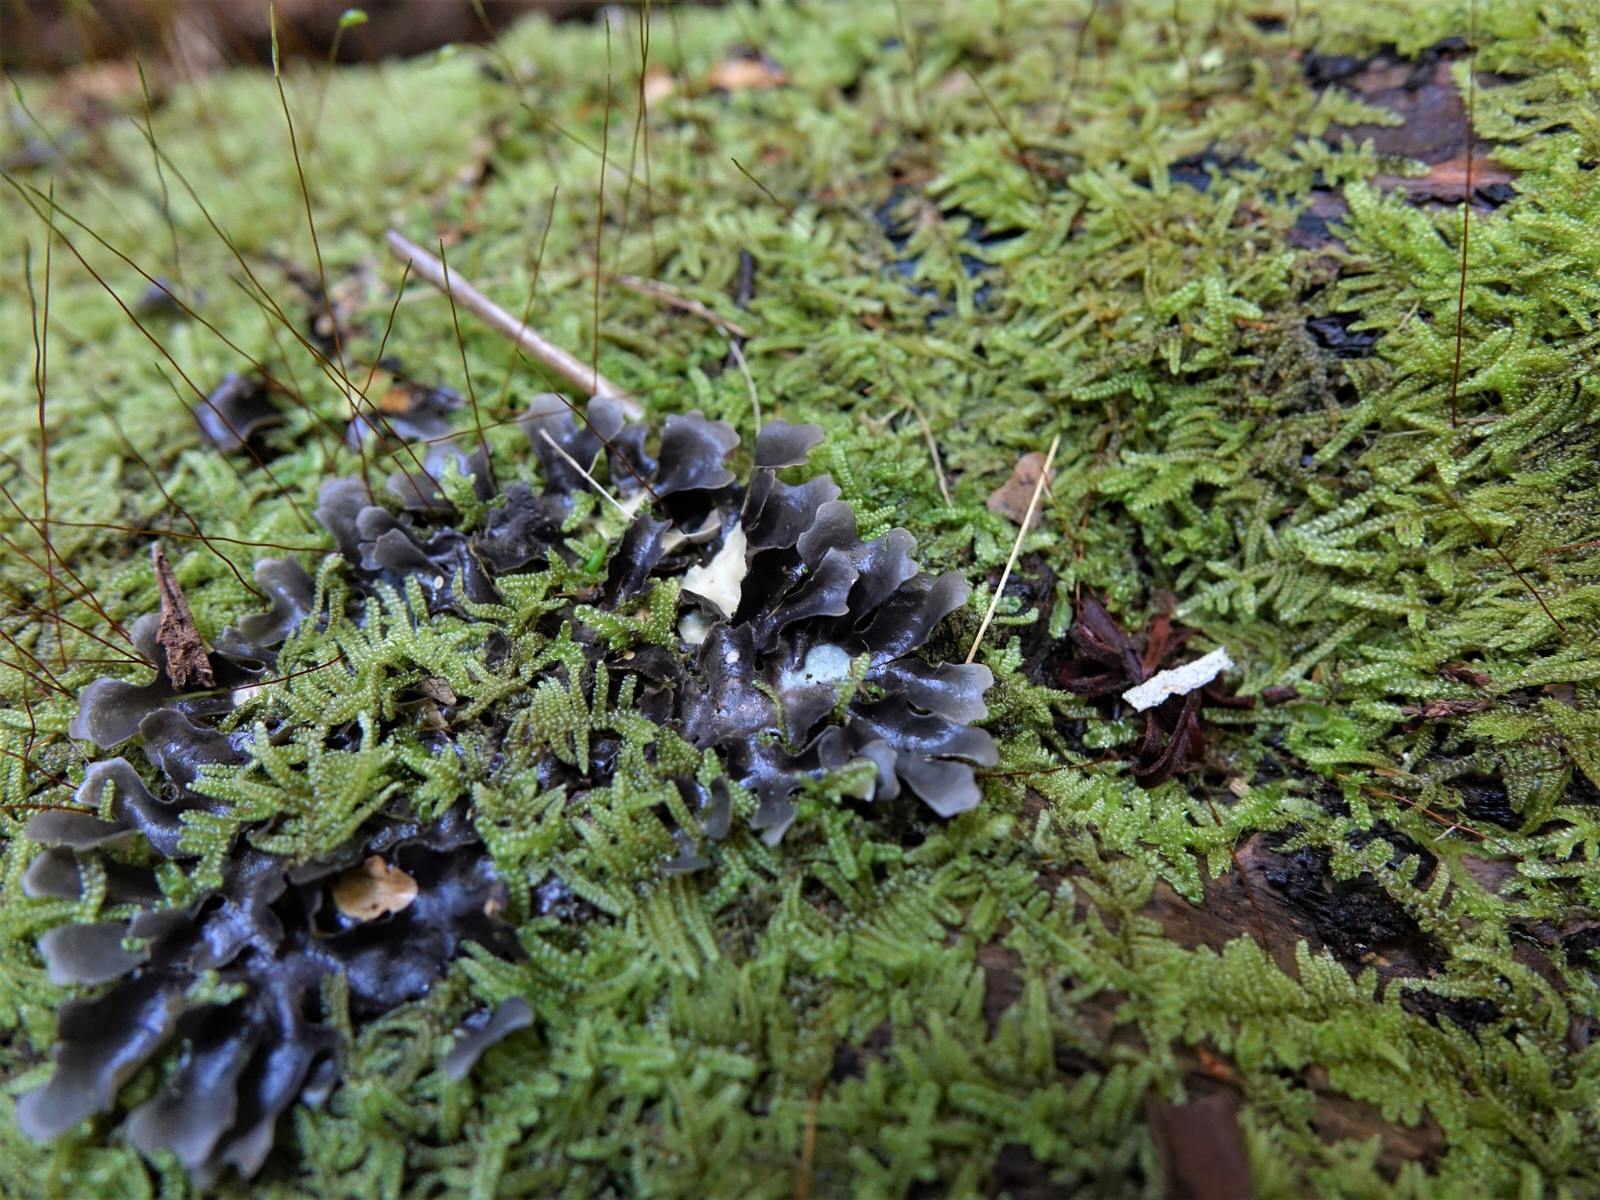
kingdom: Fungi
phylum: Ascomycota
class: Lecanoromycetes
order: Peltigerales
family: Lobariaceae
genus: Pseudocyphellaria
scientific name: Pseudocyphellaria dissimilis
